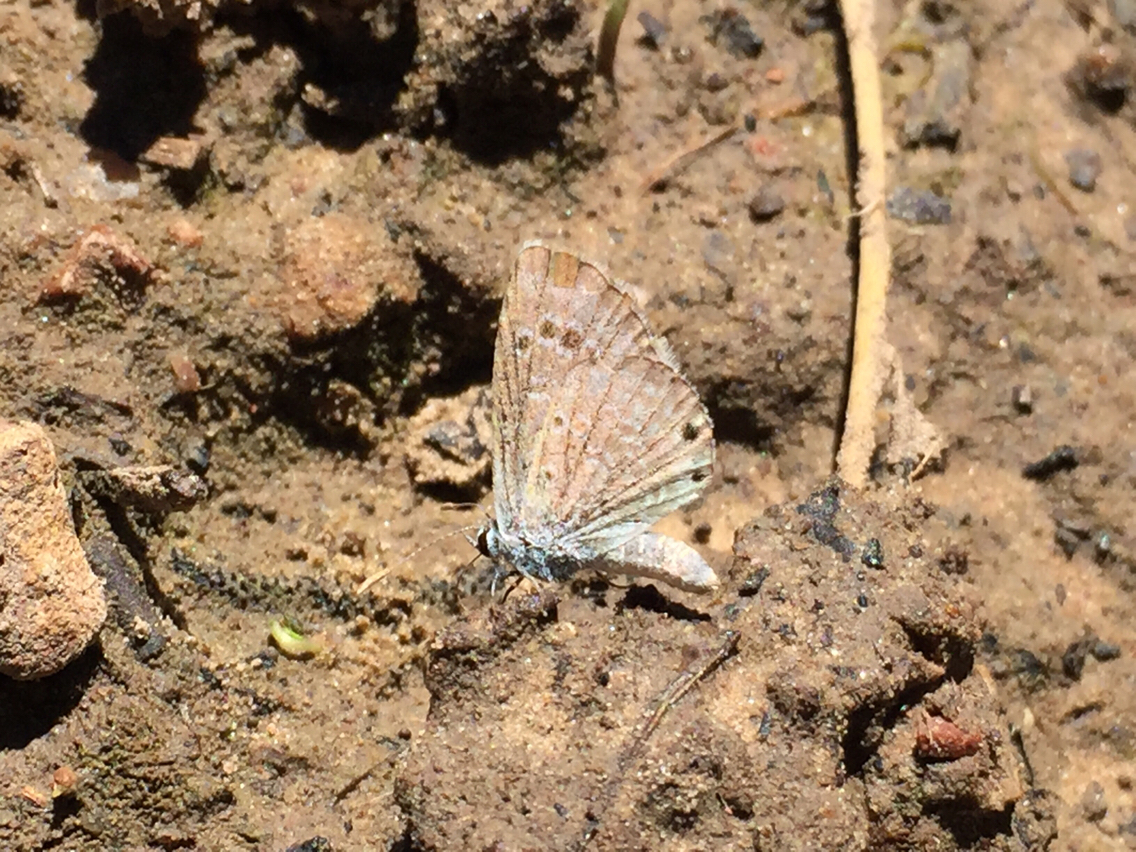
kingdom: Animalia
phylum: Arthropoda
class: Insecta
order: Lepidoptera
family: Lycaenidae
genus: Echinargus
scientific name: Echinargus isola
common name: Reakirt's blue
